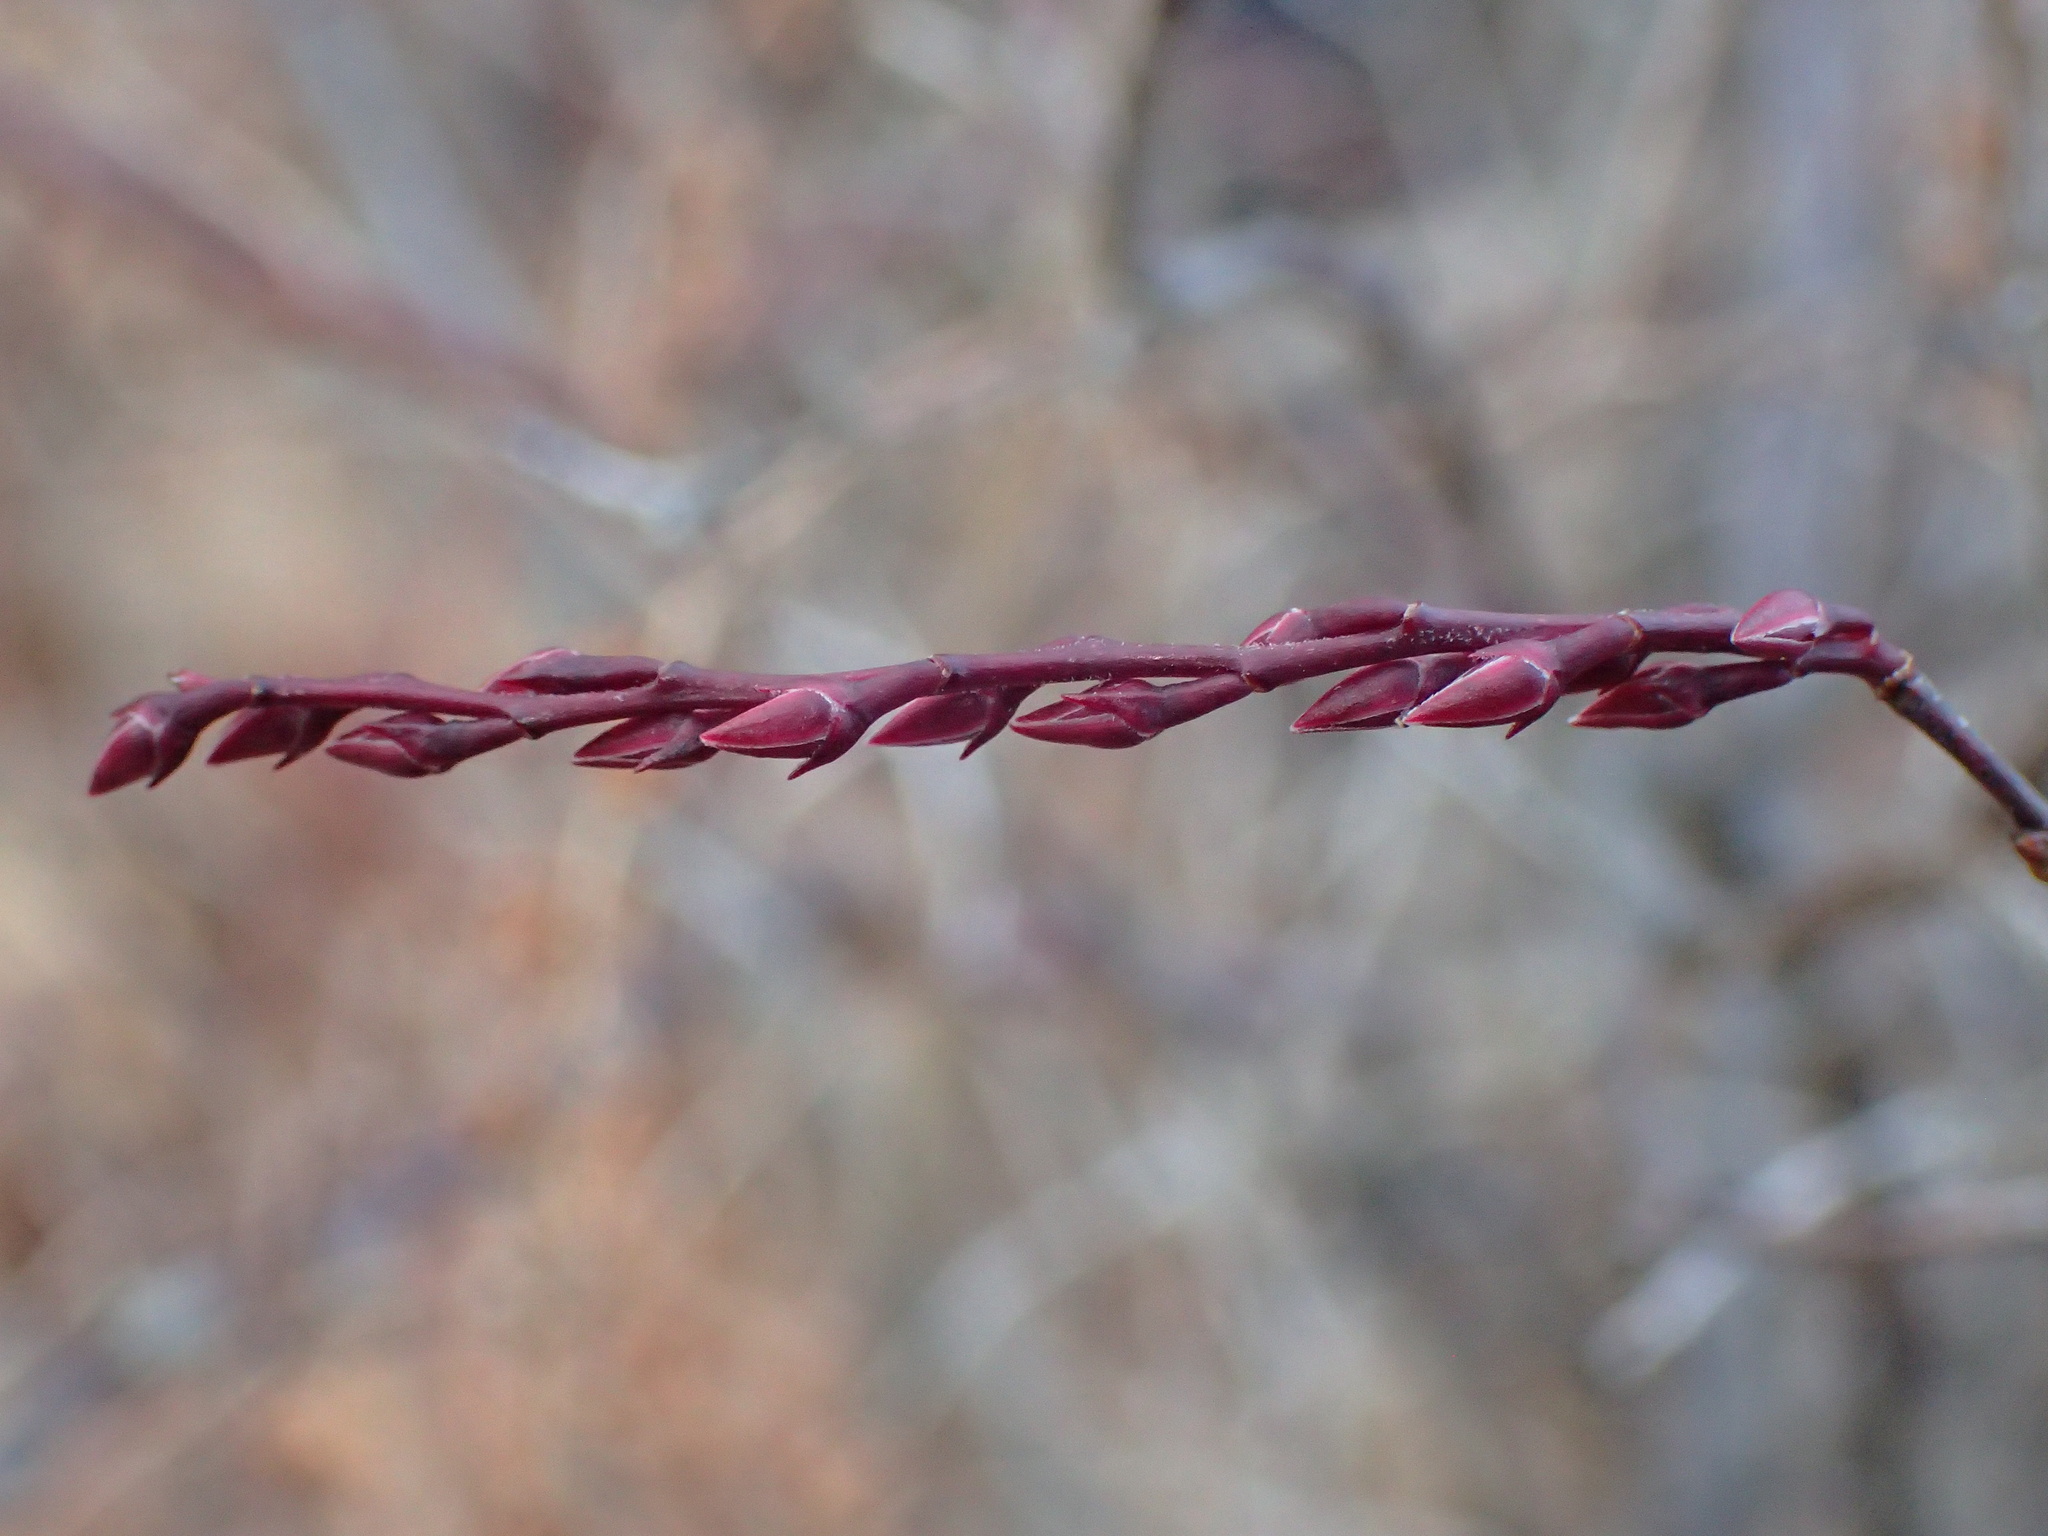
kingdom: Plantae
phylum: Tracheophyta
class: Magnoliopsida
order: Ericales
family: Ericaceae
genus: Eubotrys
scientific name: Eubotrys racemosa
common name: Fetterbush
